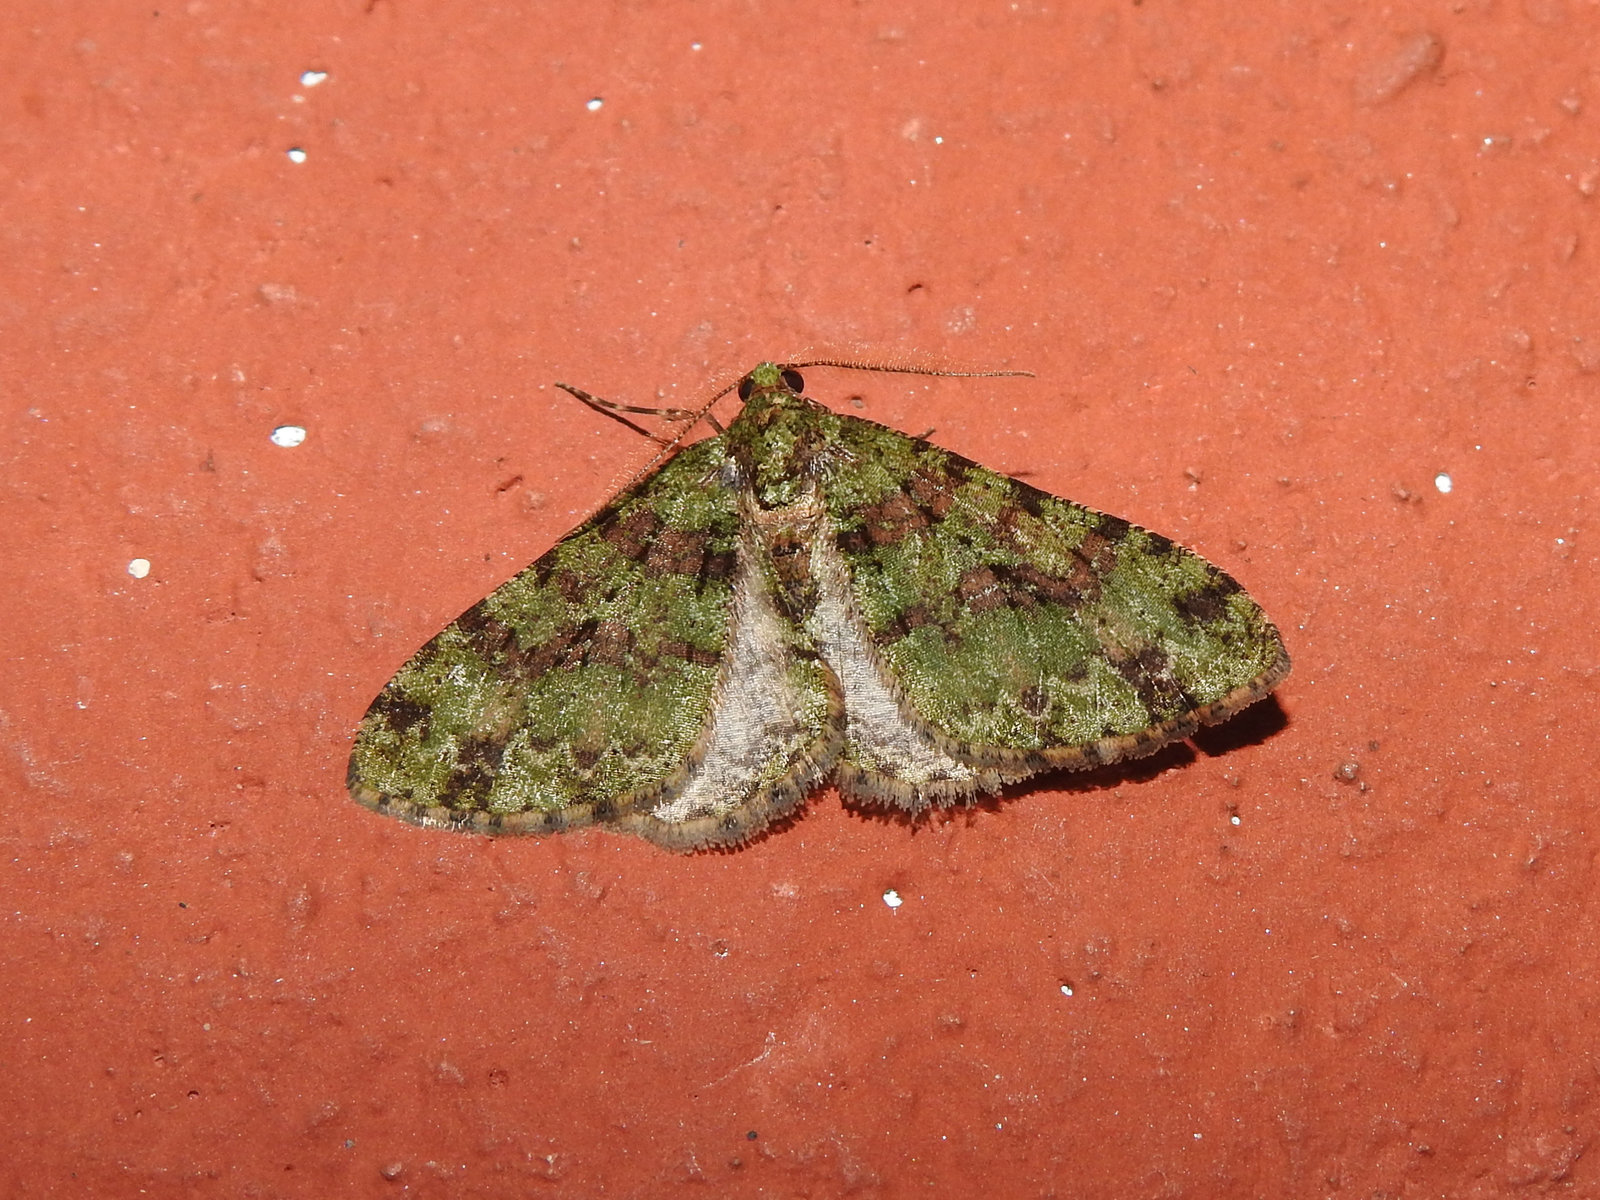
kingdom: Animalia
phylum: Arthropoda
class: Insecta
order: Lepidoptera
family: Geometridae
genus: Myrioblephara
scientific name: Myrioblephara duplexa
